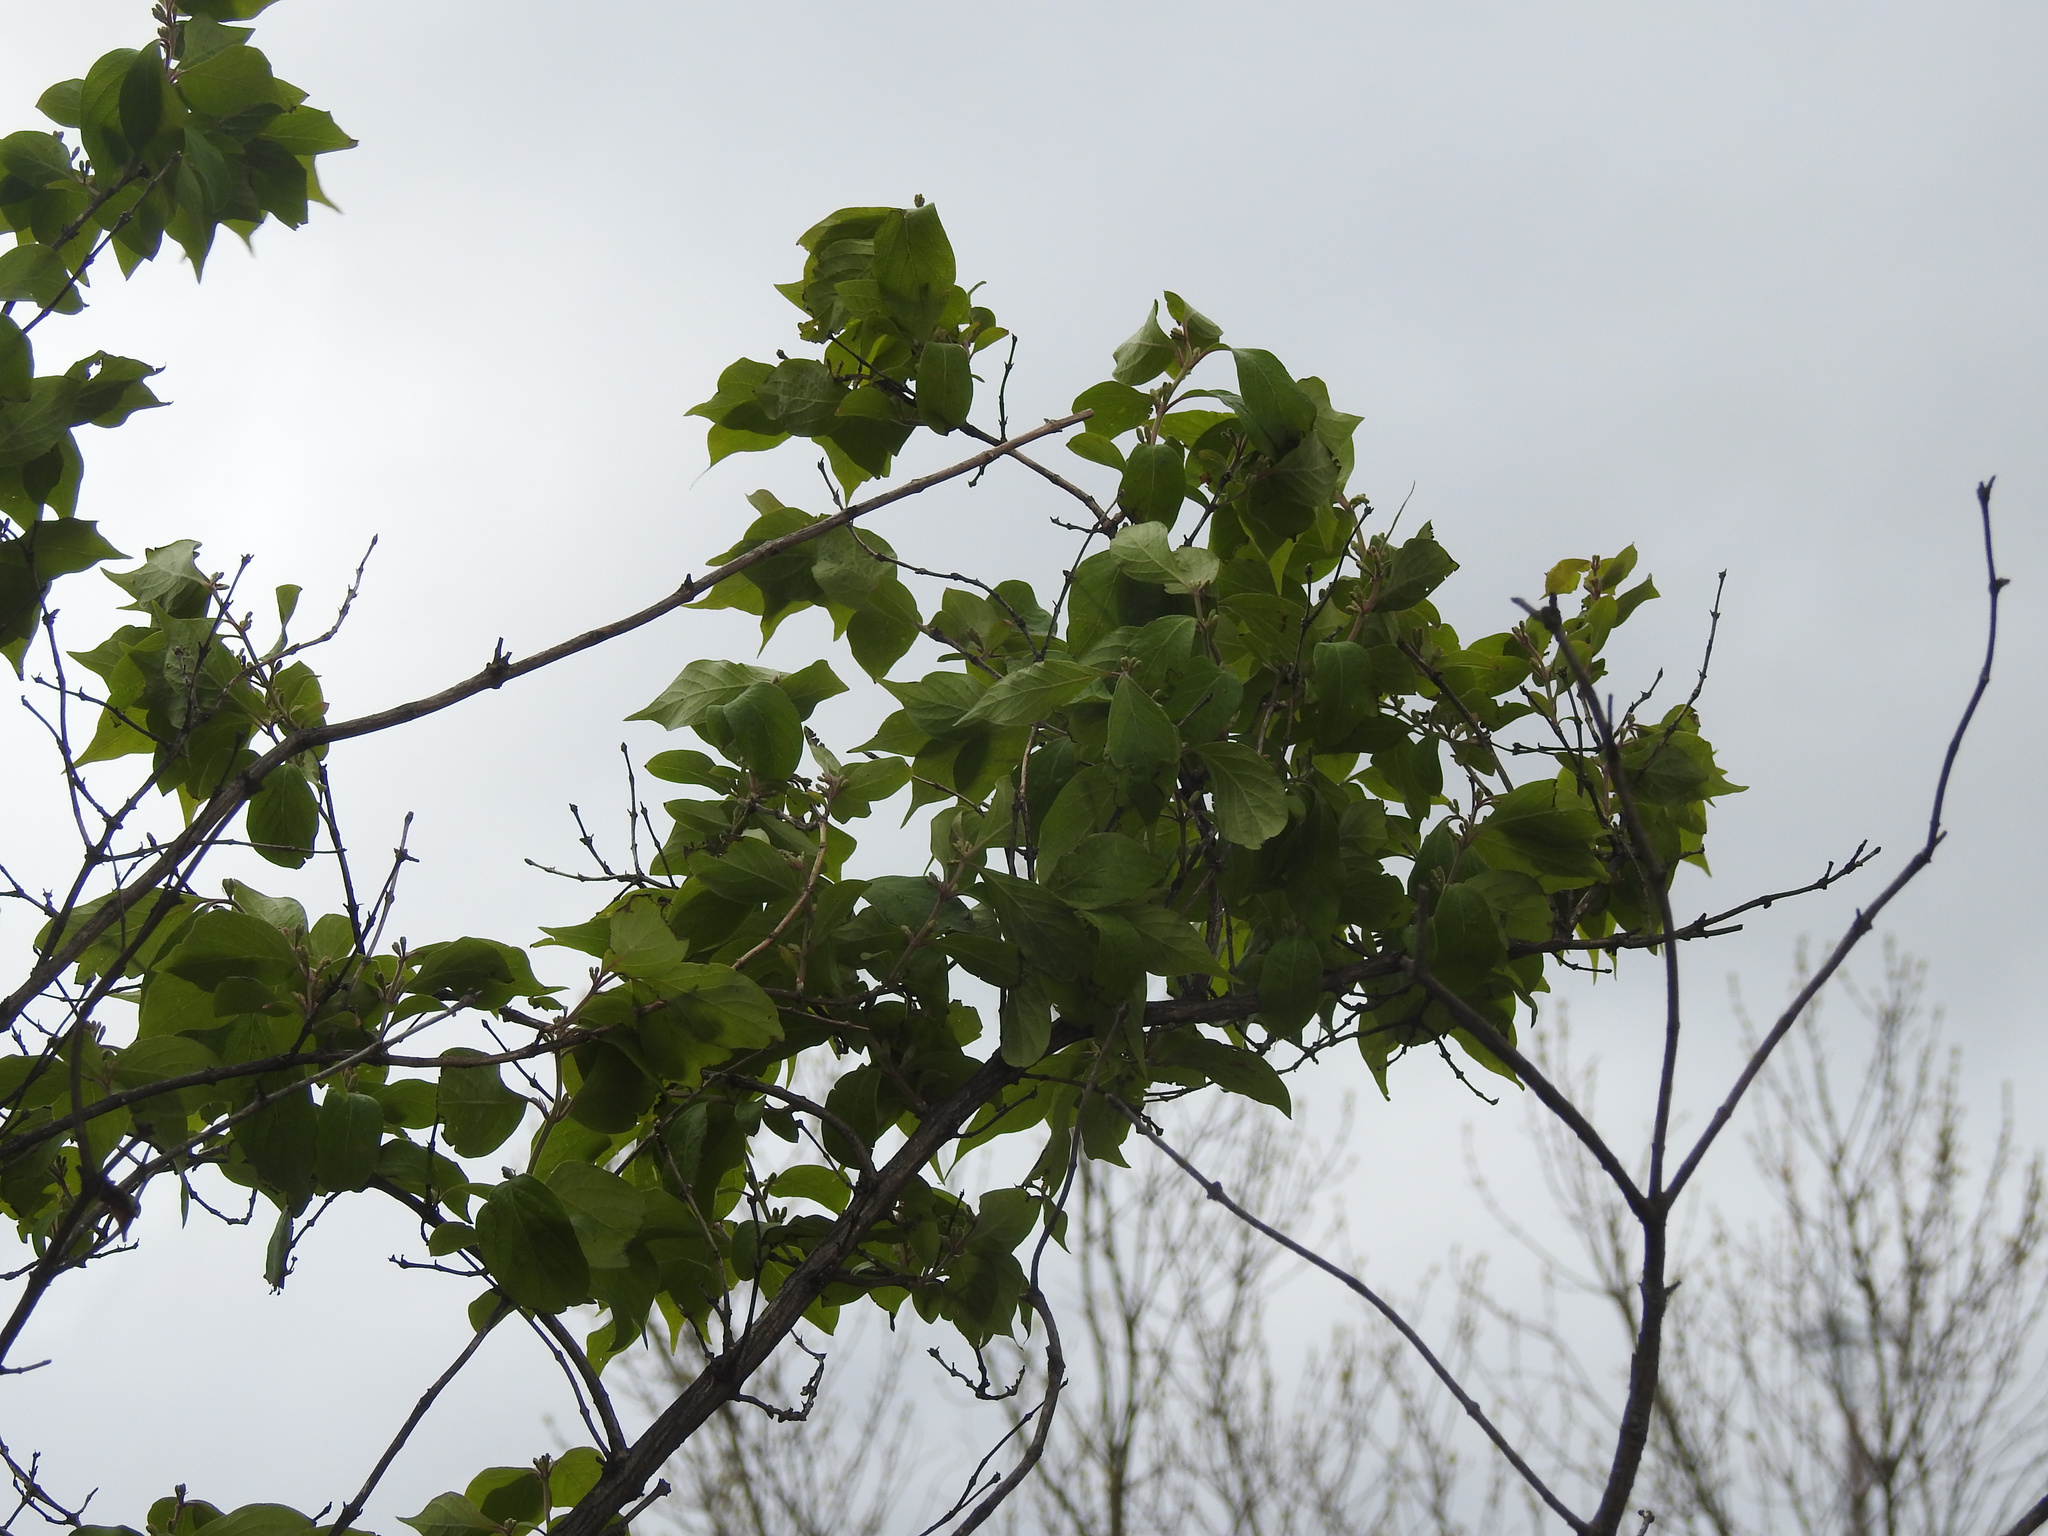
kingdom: Plantae
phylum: Tracheophyta
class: Magnoliopsida
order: Dipsacales
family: Caprifoliaceae
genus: Lonicera
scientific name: Lonicera maackii
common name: Amur honeysuckle
